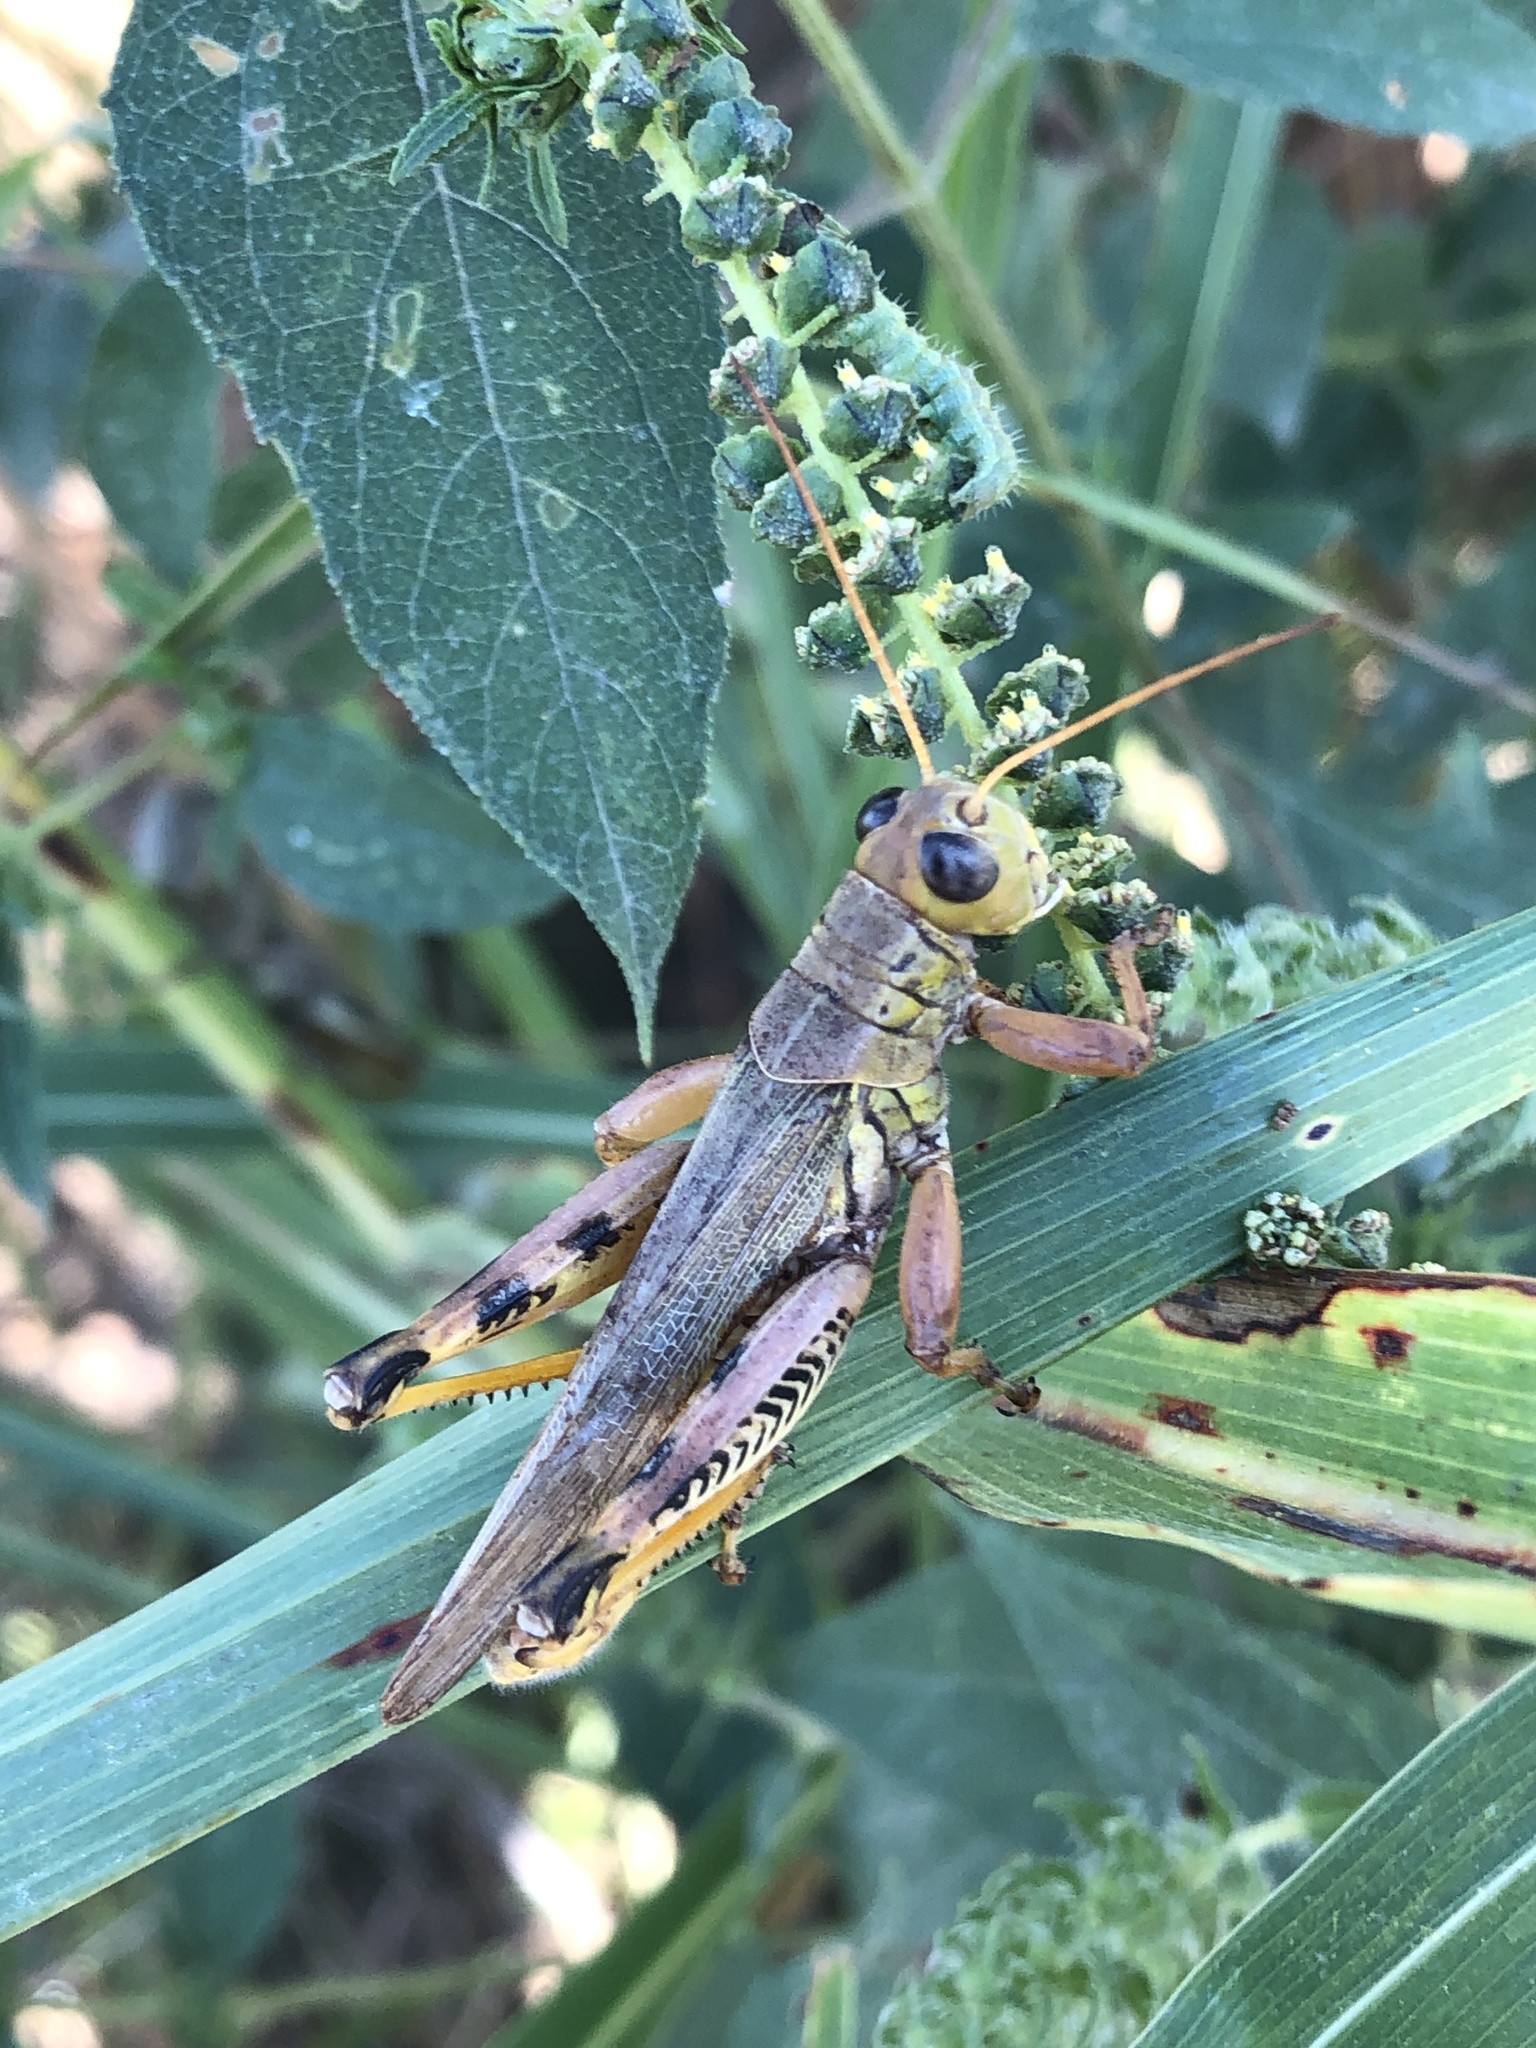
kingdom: Animalia
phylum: Arthropoda
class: Insecta
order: Orthoptera
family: Acrididae
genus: Melanoplus
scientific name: Melanoplus differentialis
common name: Differential grasshopper
